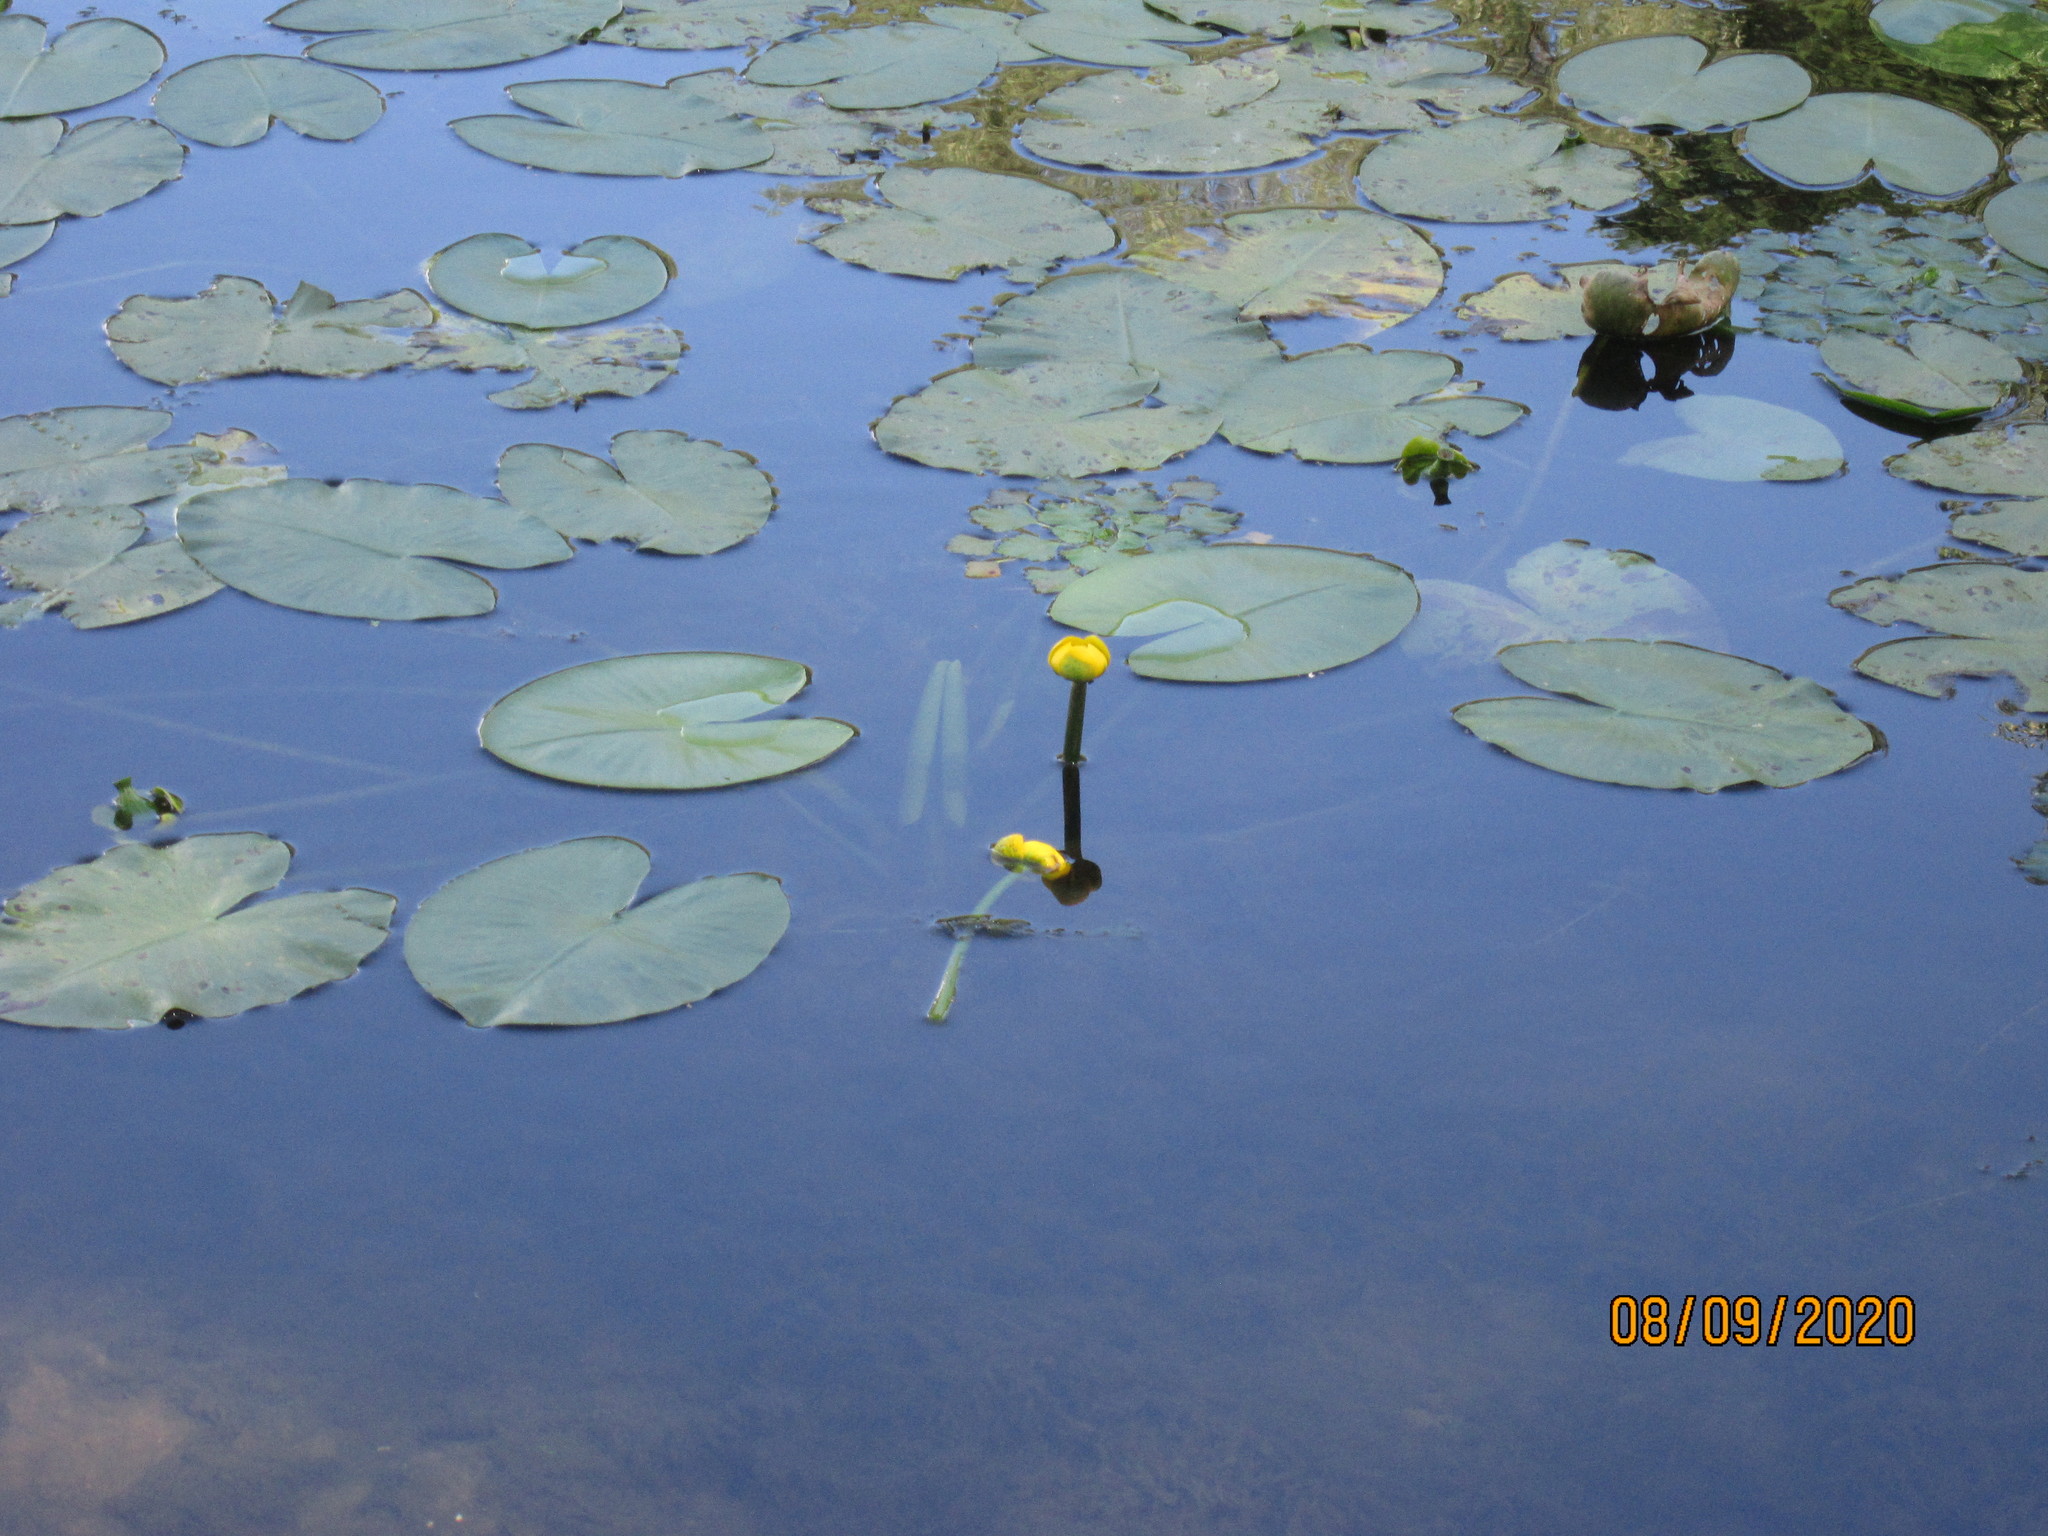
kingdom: Plantae
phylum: Tracheophyta
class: Magnoliopsida
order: Nymphaeales
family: Nymphaeaceae
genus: Nuphar
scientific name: Nuphar lutea
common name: Yellow water-lily
